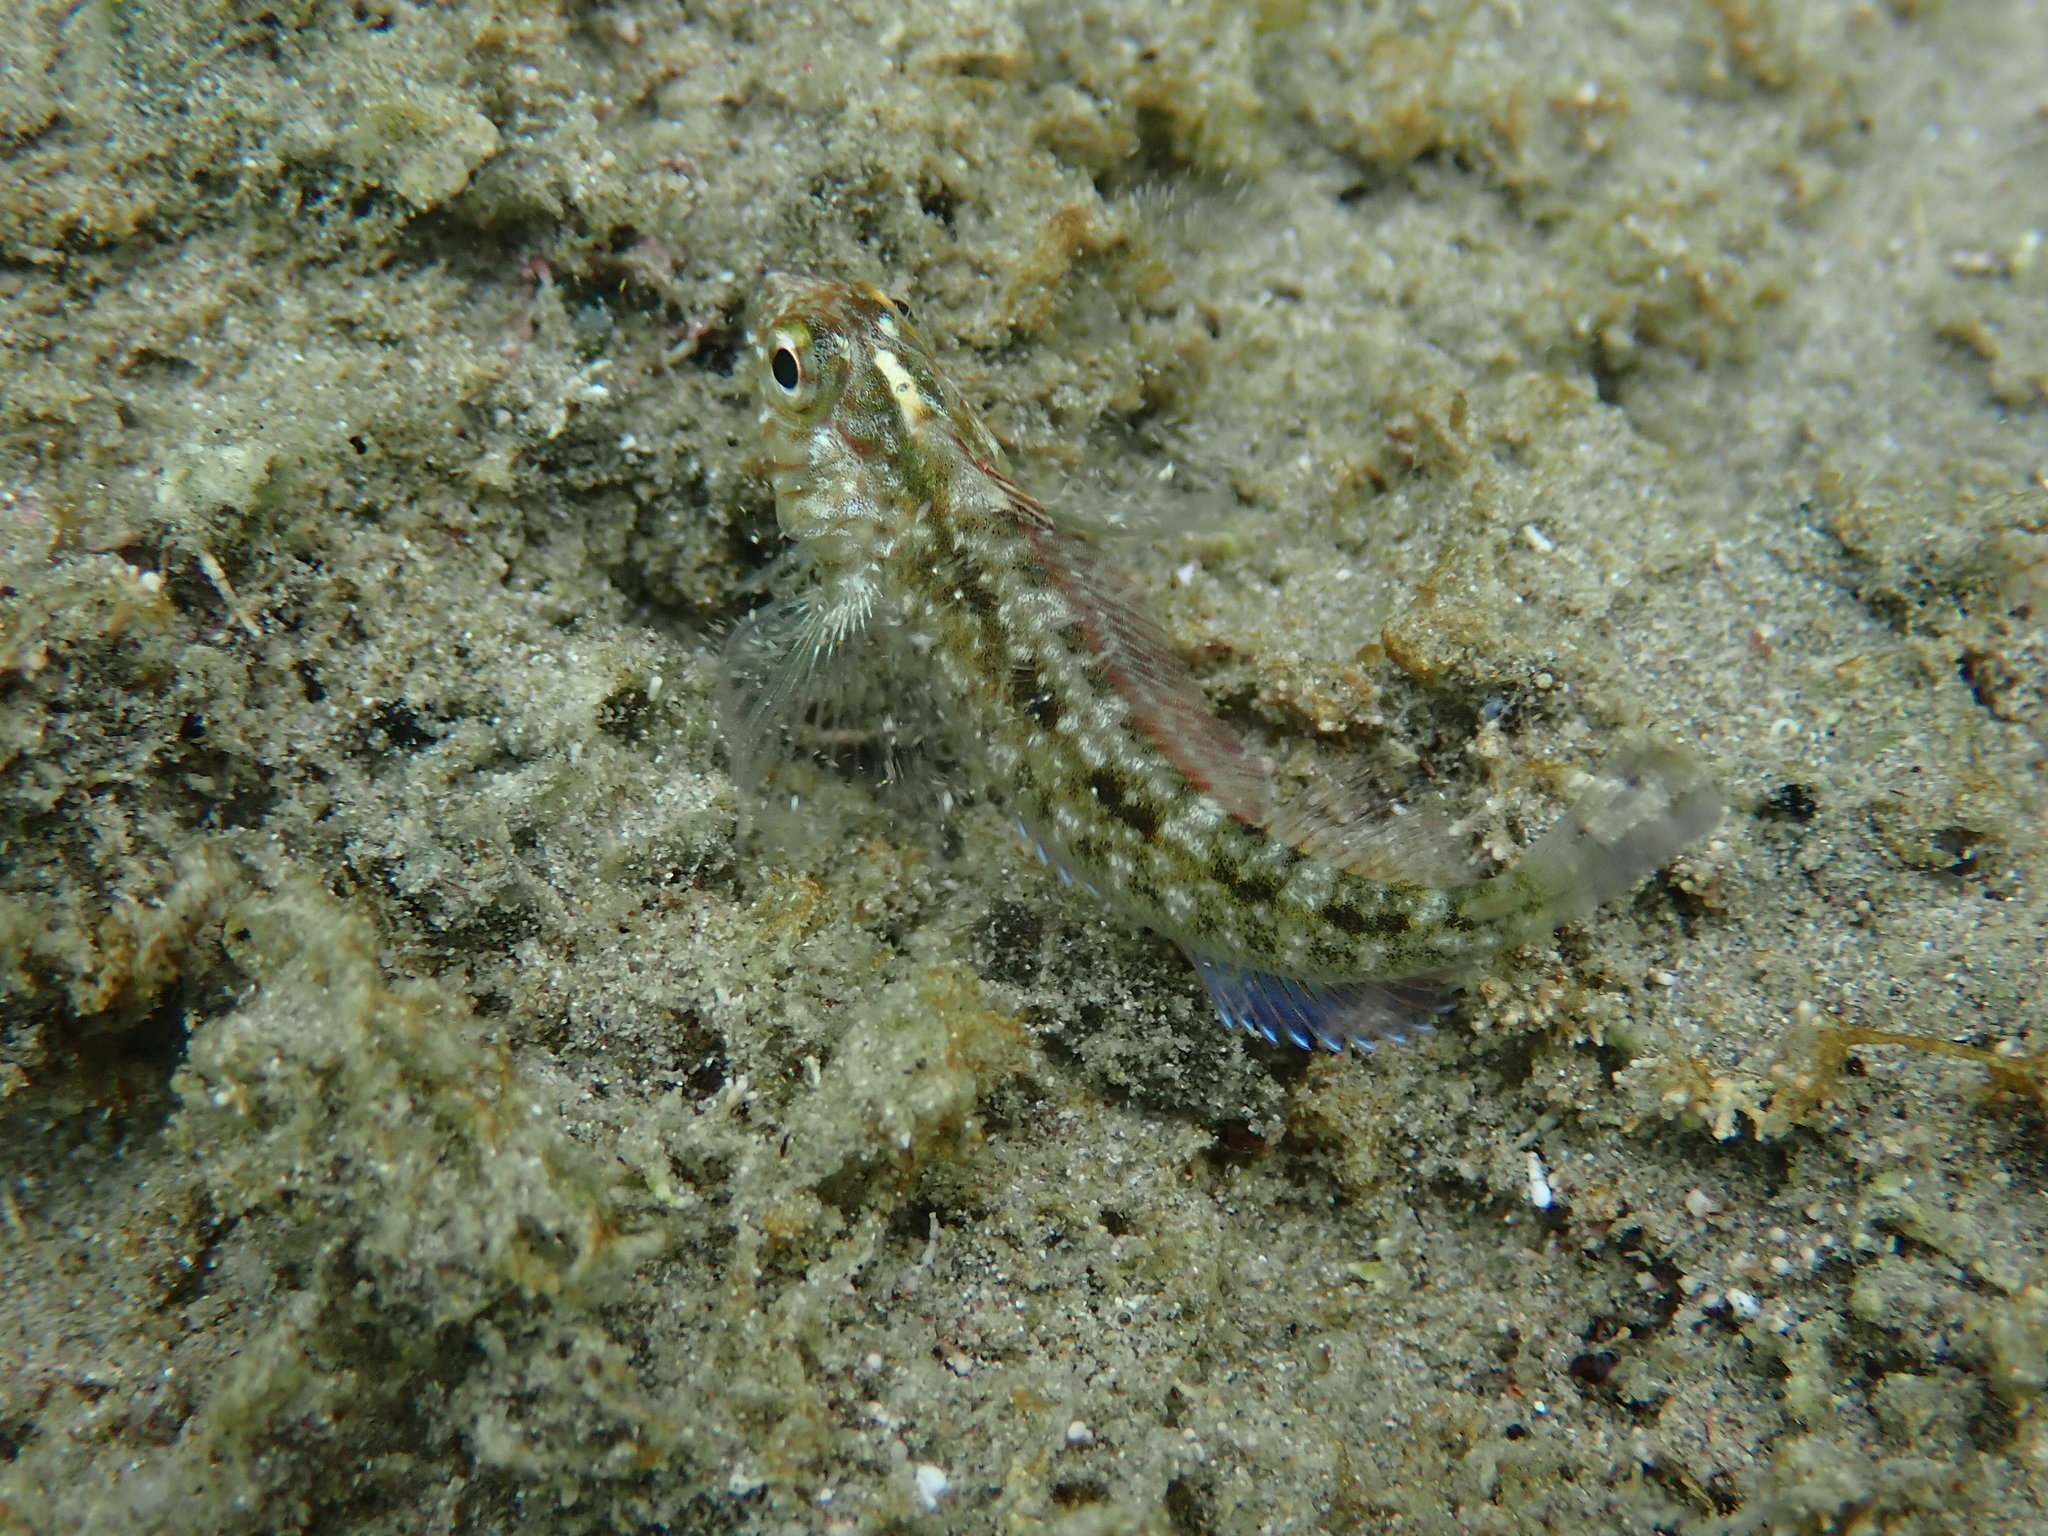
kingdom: Animalia
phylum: Chordata
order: Perciformes
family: Tripterygiidae
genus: Forsterygion
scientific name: Forsterygion lapillum
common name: Common triplefin
